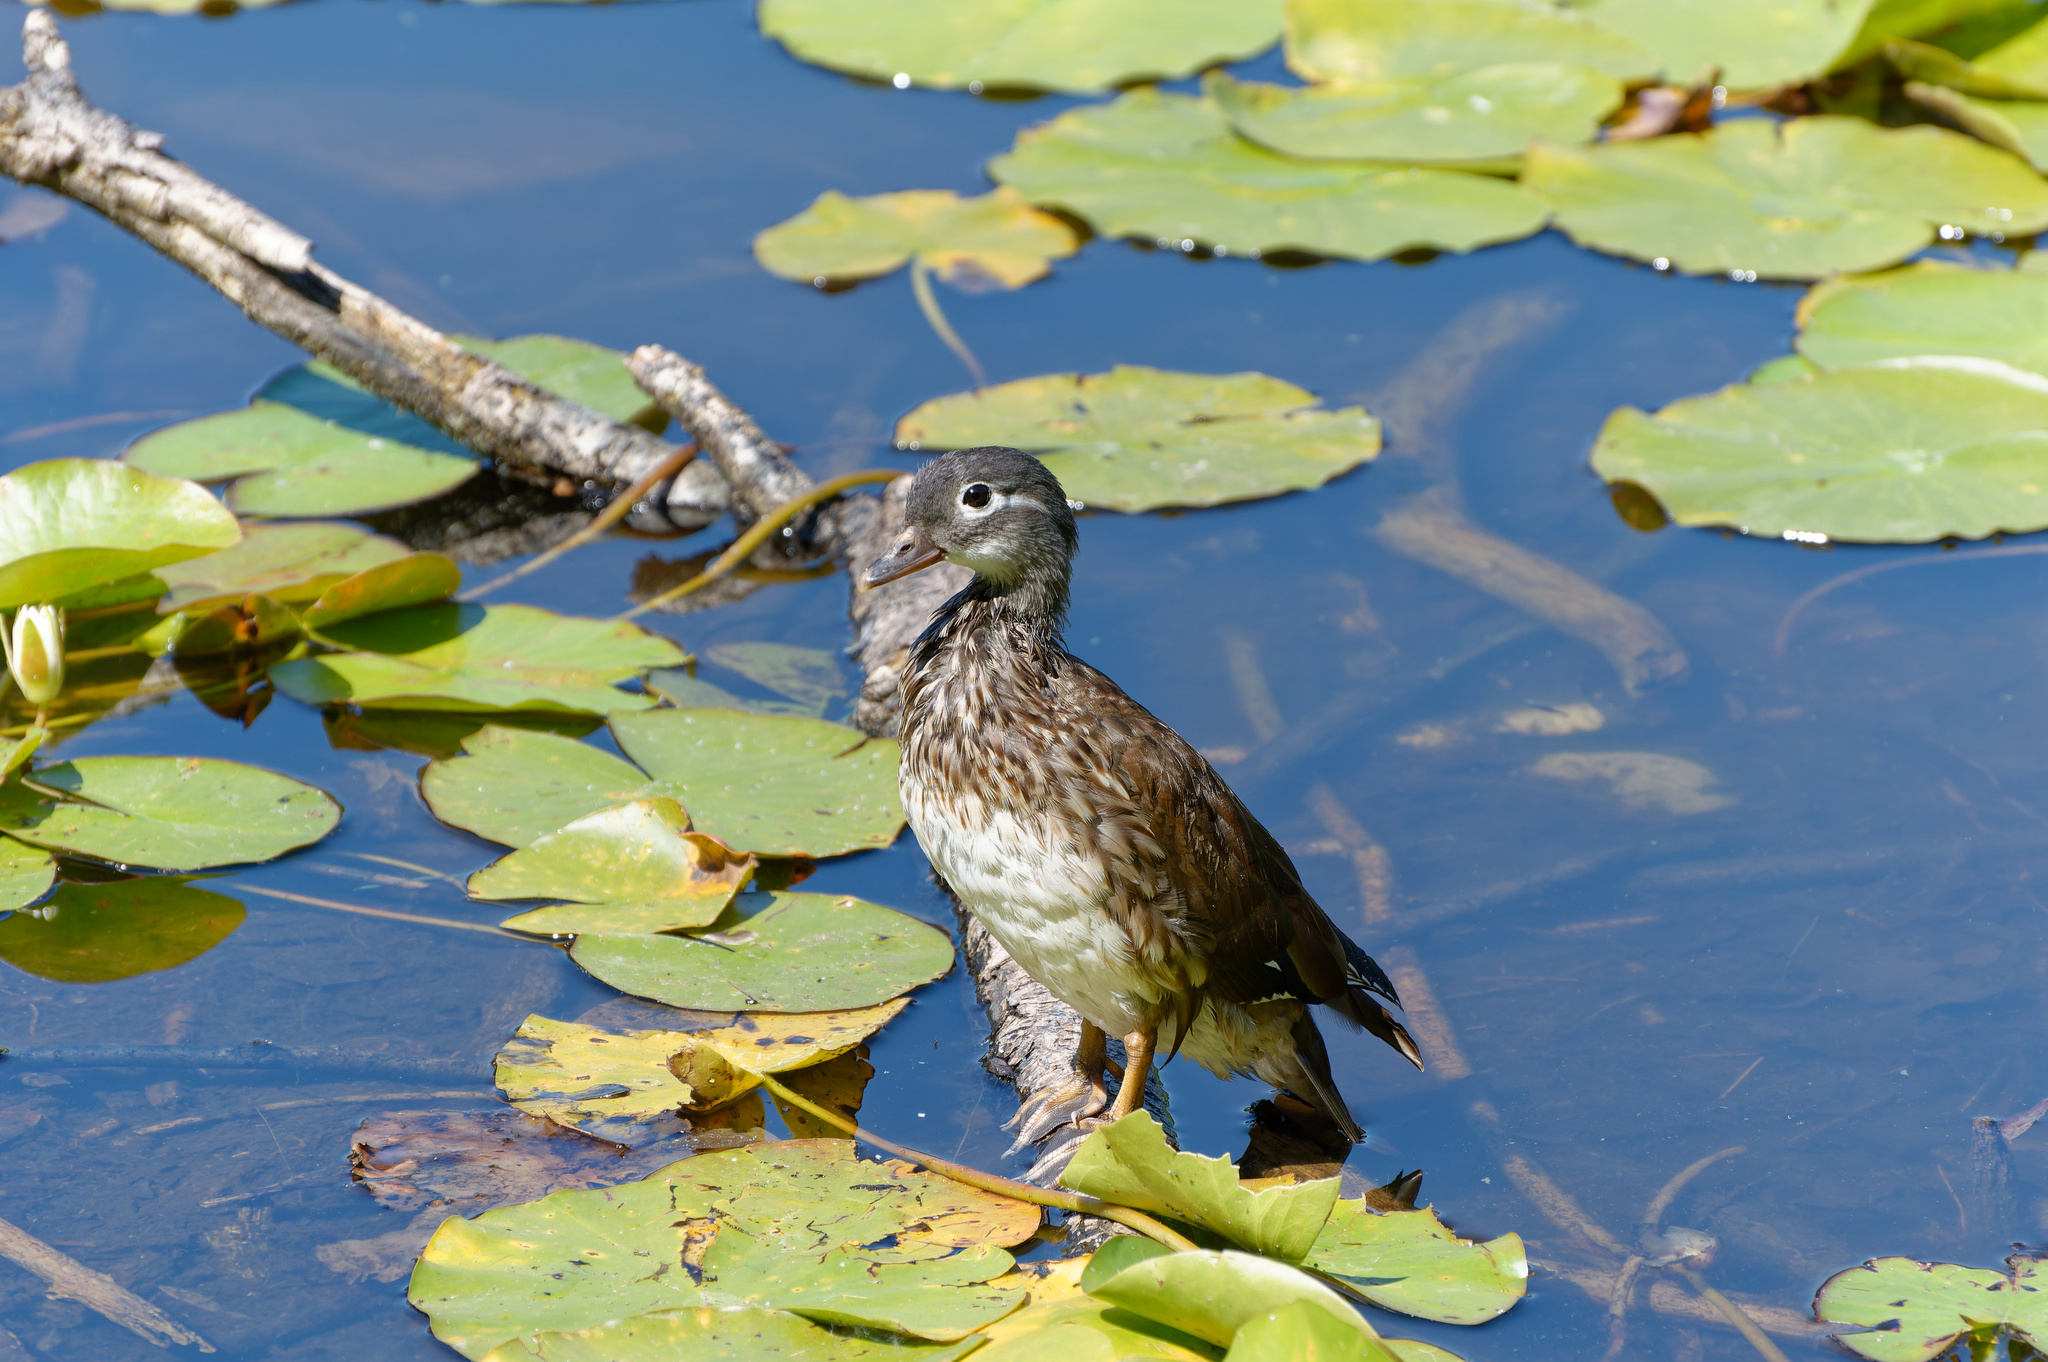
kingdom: Animalia
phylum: Chordata
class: Aves
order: Anseriformes
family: Anatidae
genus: Aix
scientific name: Aix galericulata
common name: Mandarin duck
